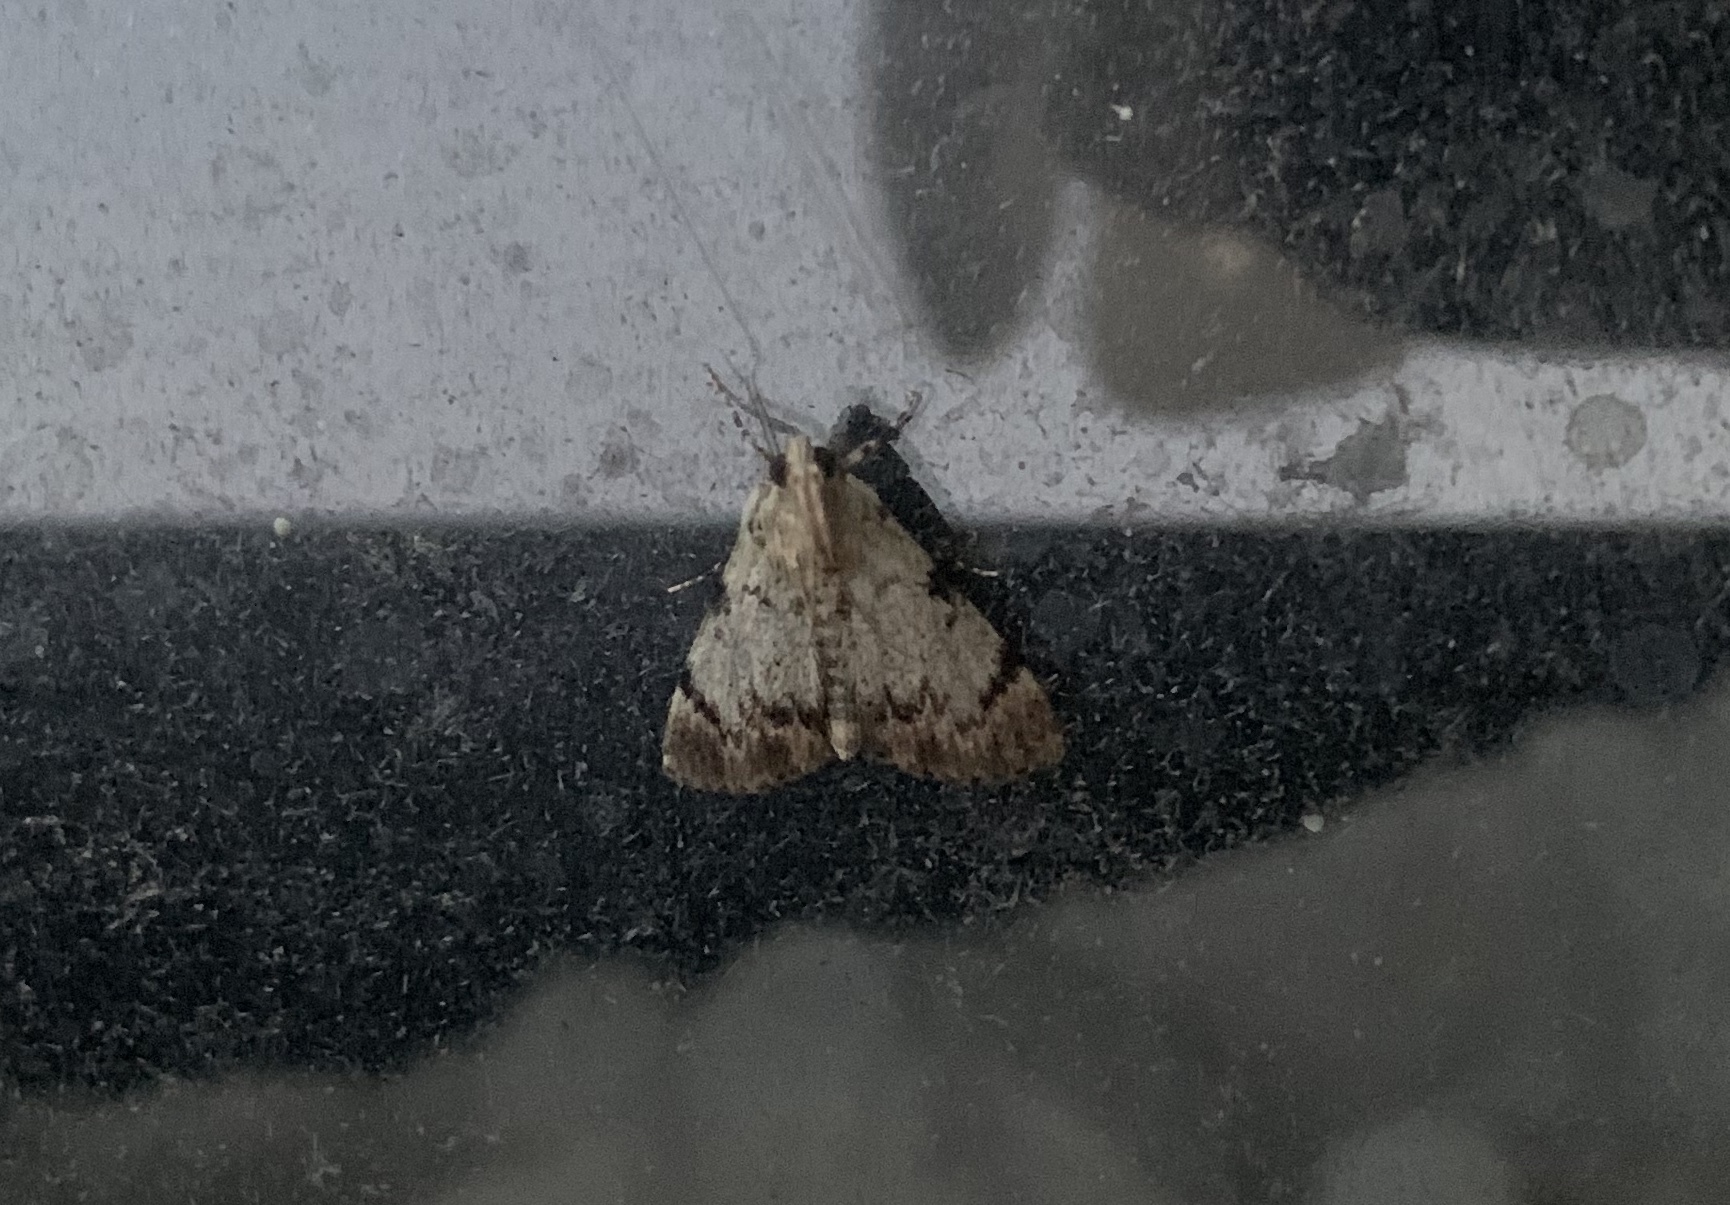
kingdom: Animalia
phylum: Arthropoda
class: Insecta
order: Lepidoptera
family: Pyralidae
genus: Epipaschia
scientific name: Epipaschia superatalis
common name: Dimorphic macalla moth
